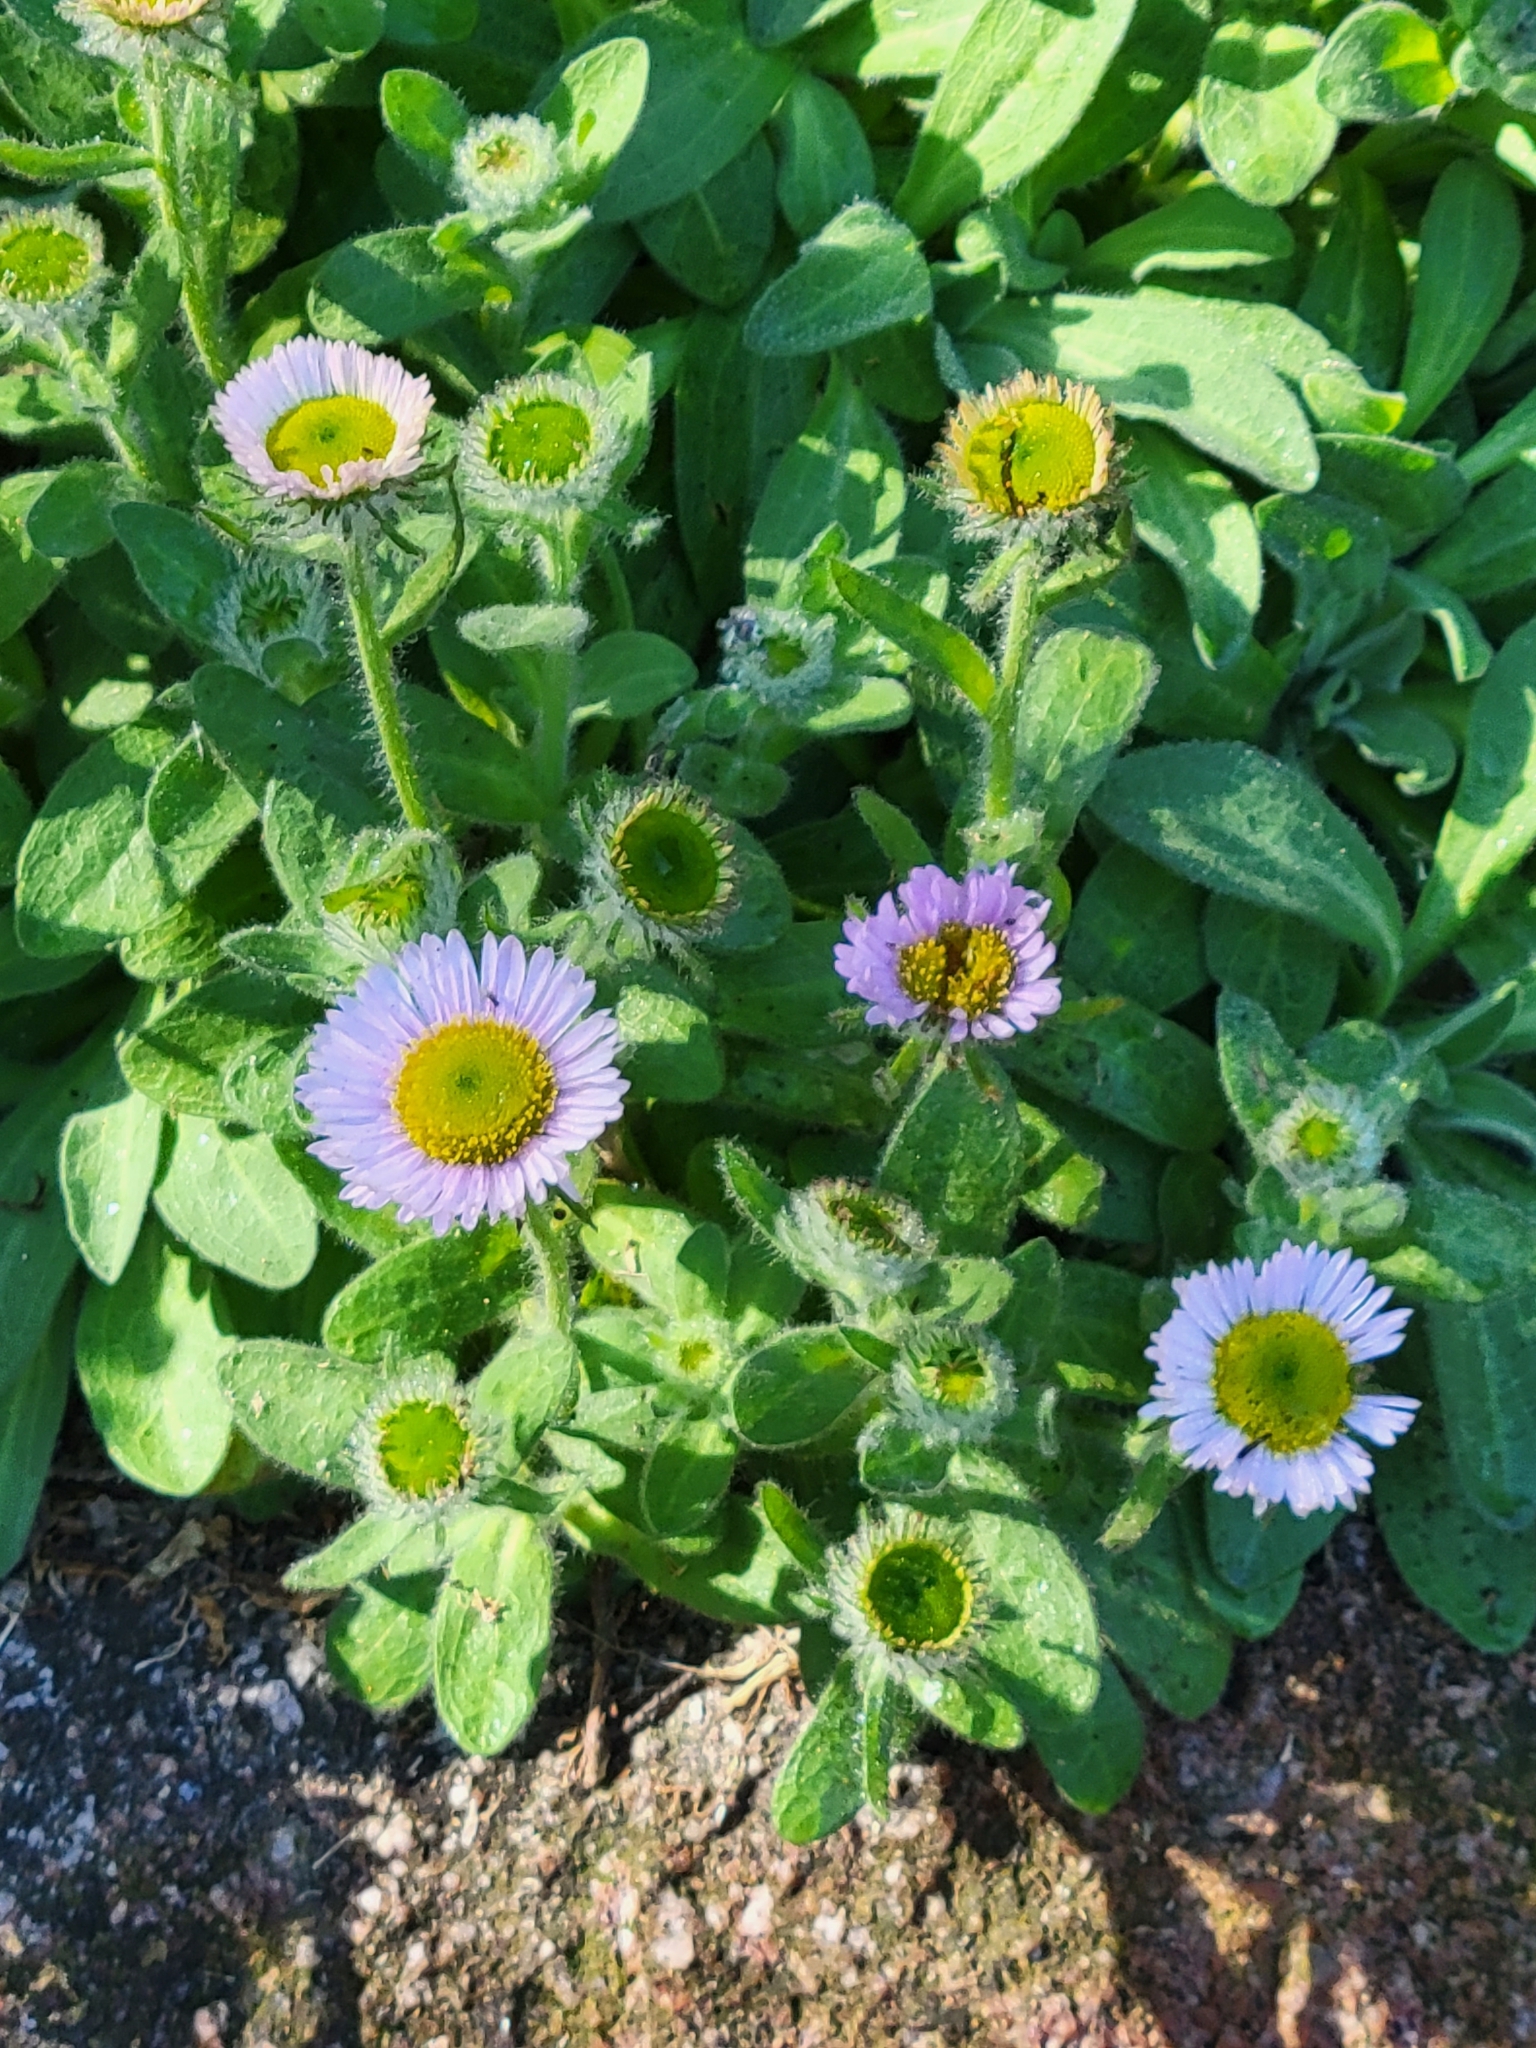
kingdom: Plantae
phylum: Tracheophyta
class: Magnoliopsida
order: Asterales
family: Asteraceae
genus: Erigeron
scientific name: Erigeron glaucus
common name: Seaside daisy
